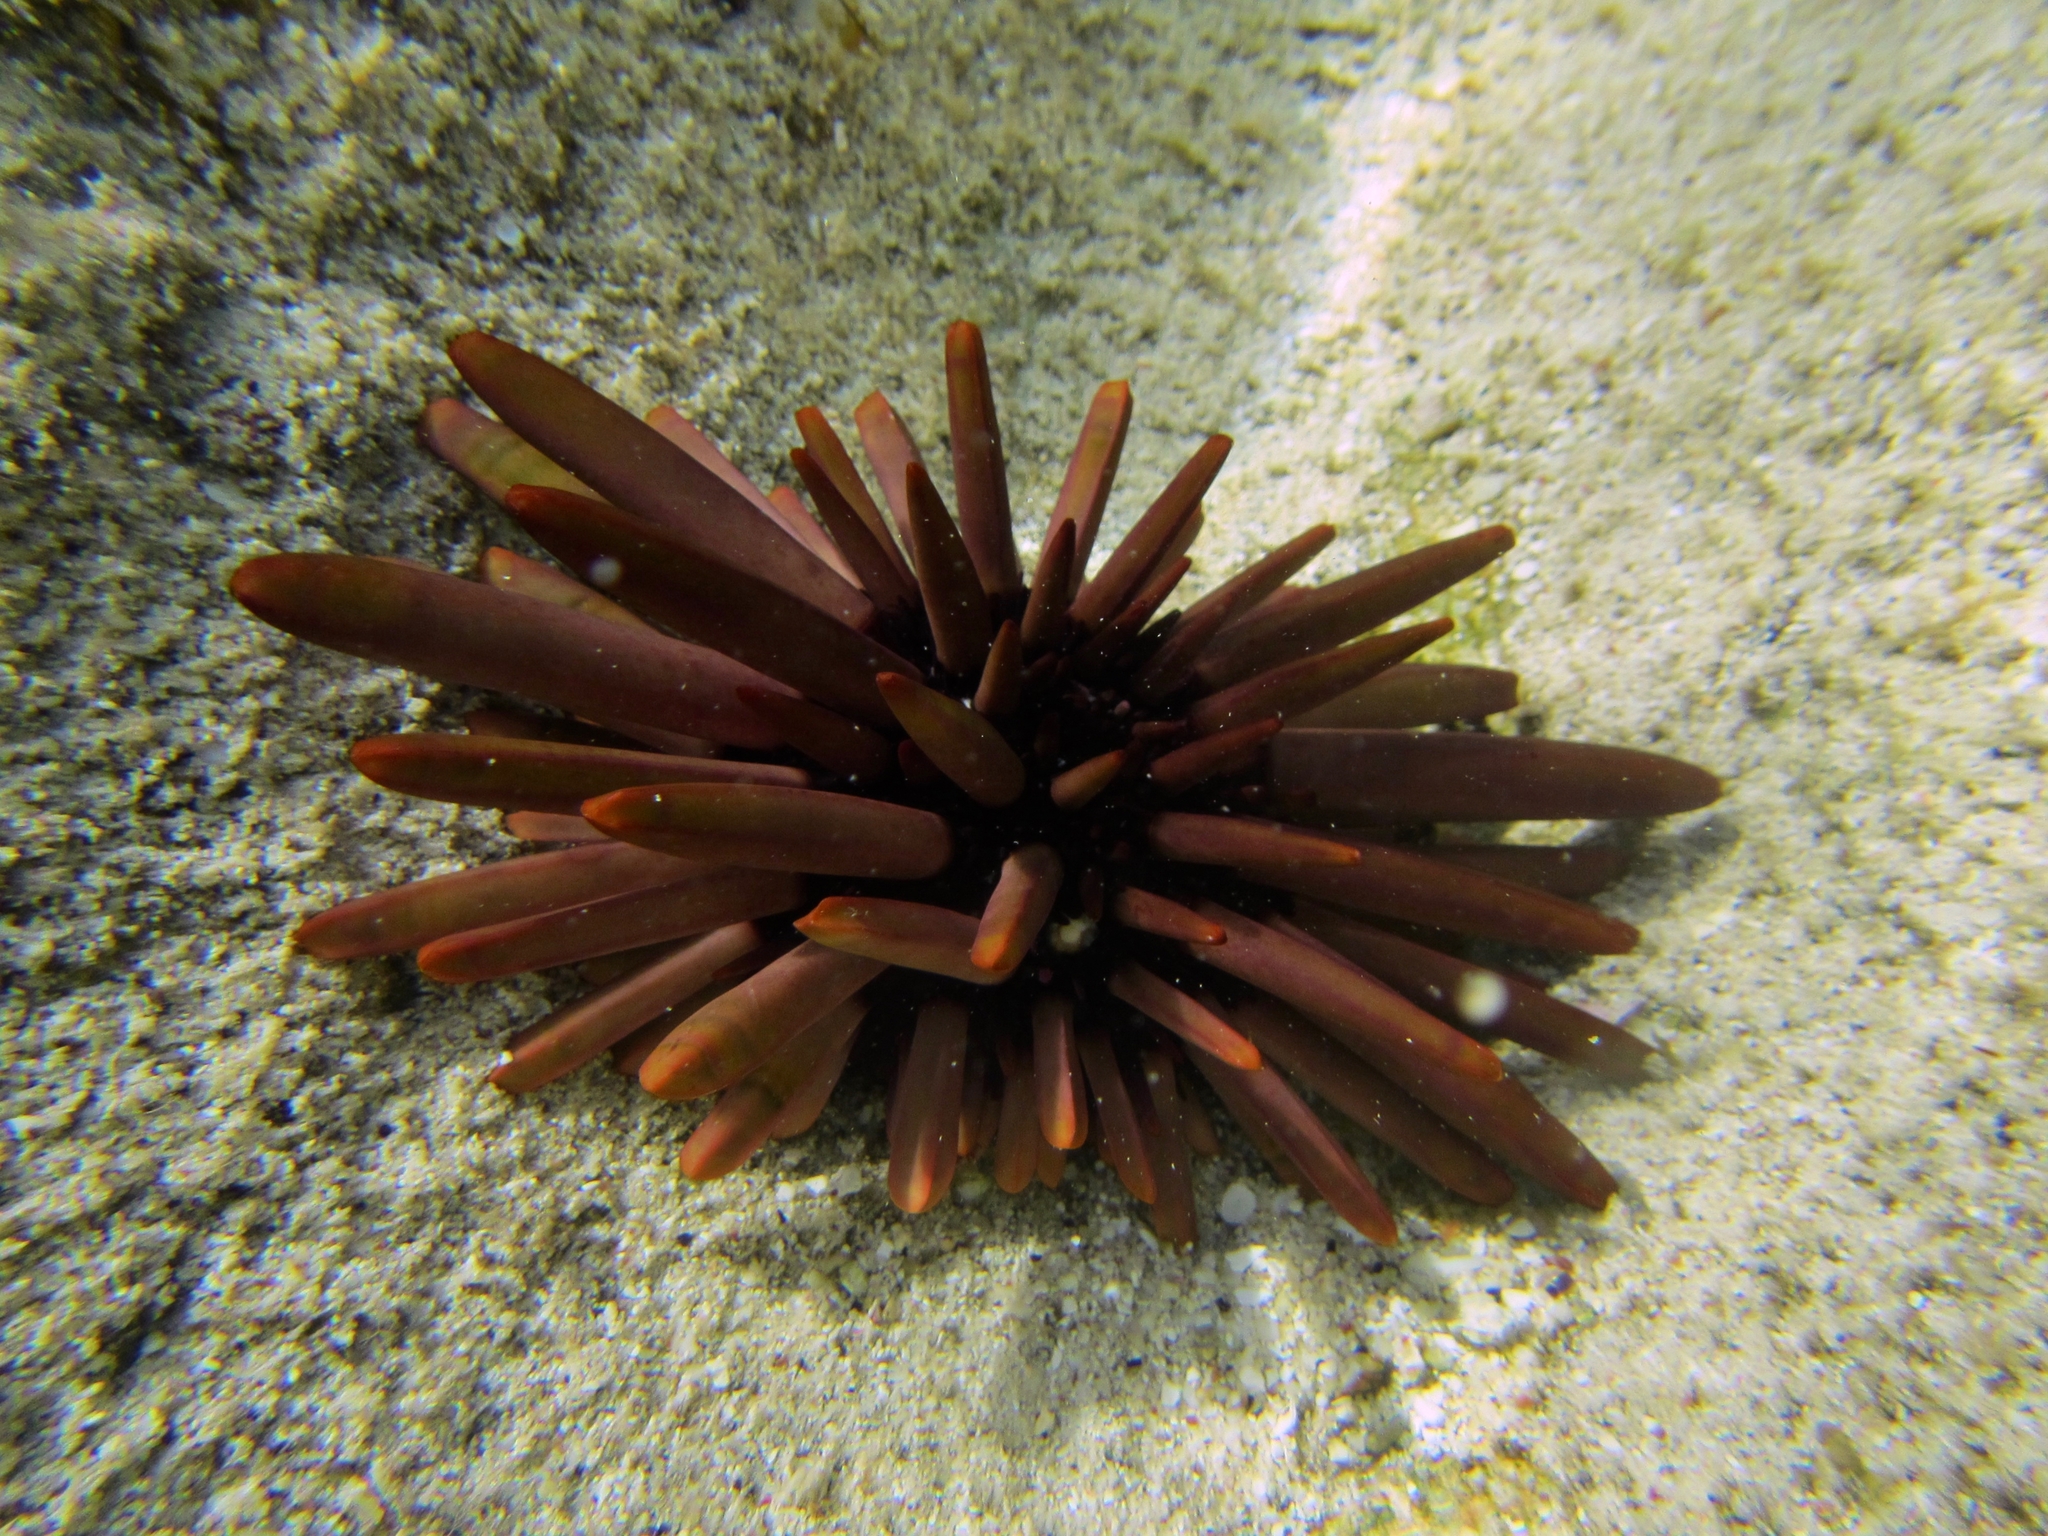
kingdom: Animalia
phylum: Echinodermata
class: Echinoidea
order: Camarodonta
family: Echinometridae
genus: Heterocentrotus
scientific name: Heterocentrotus trigonarius
